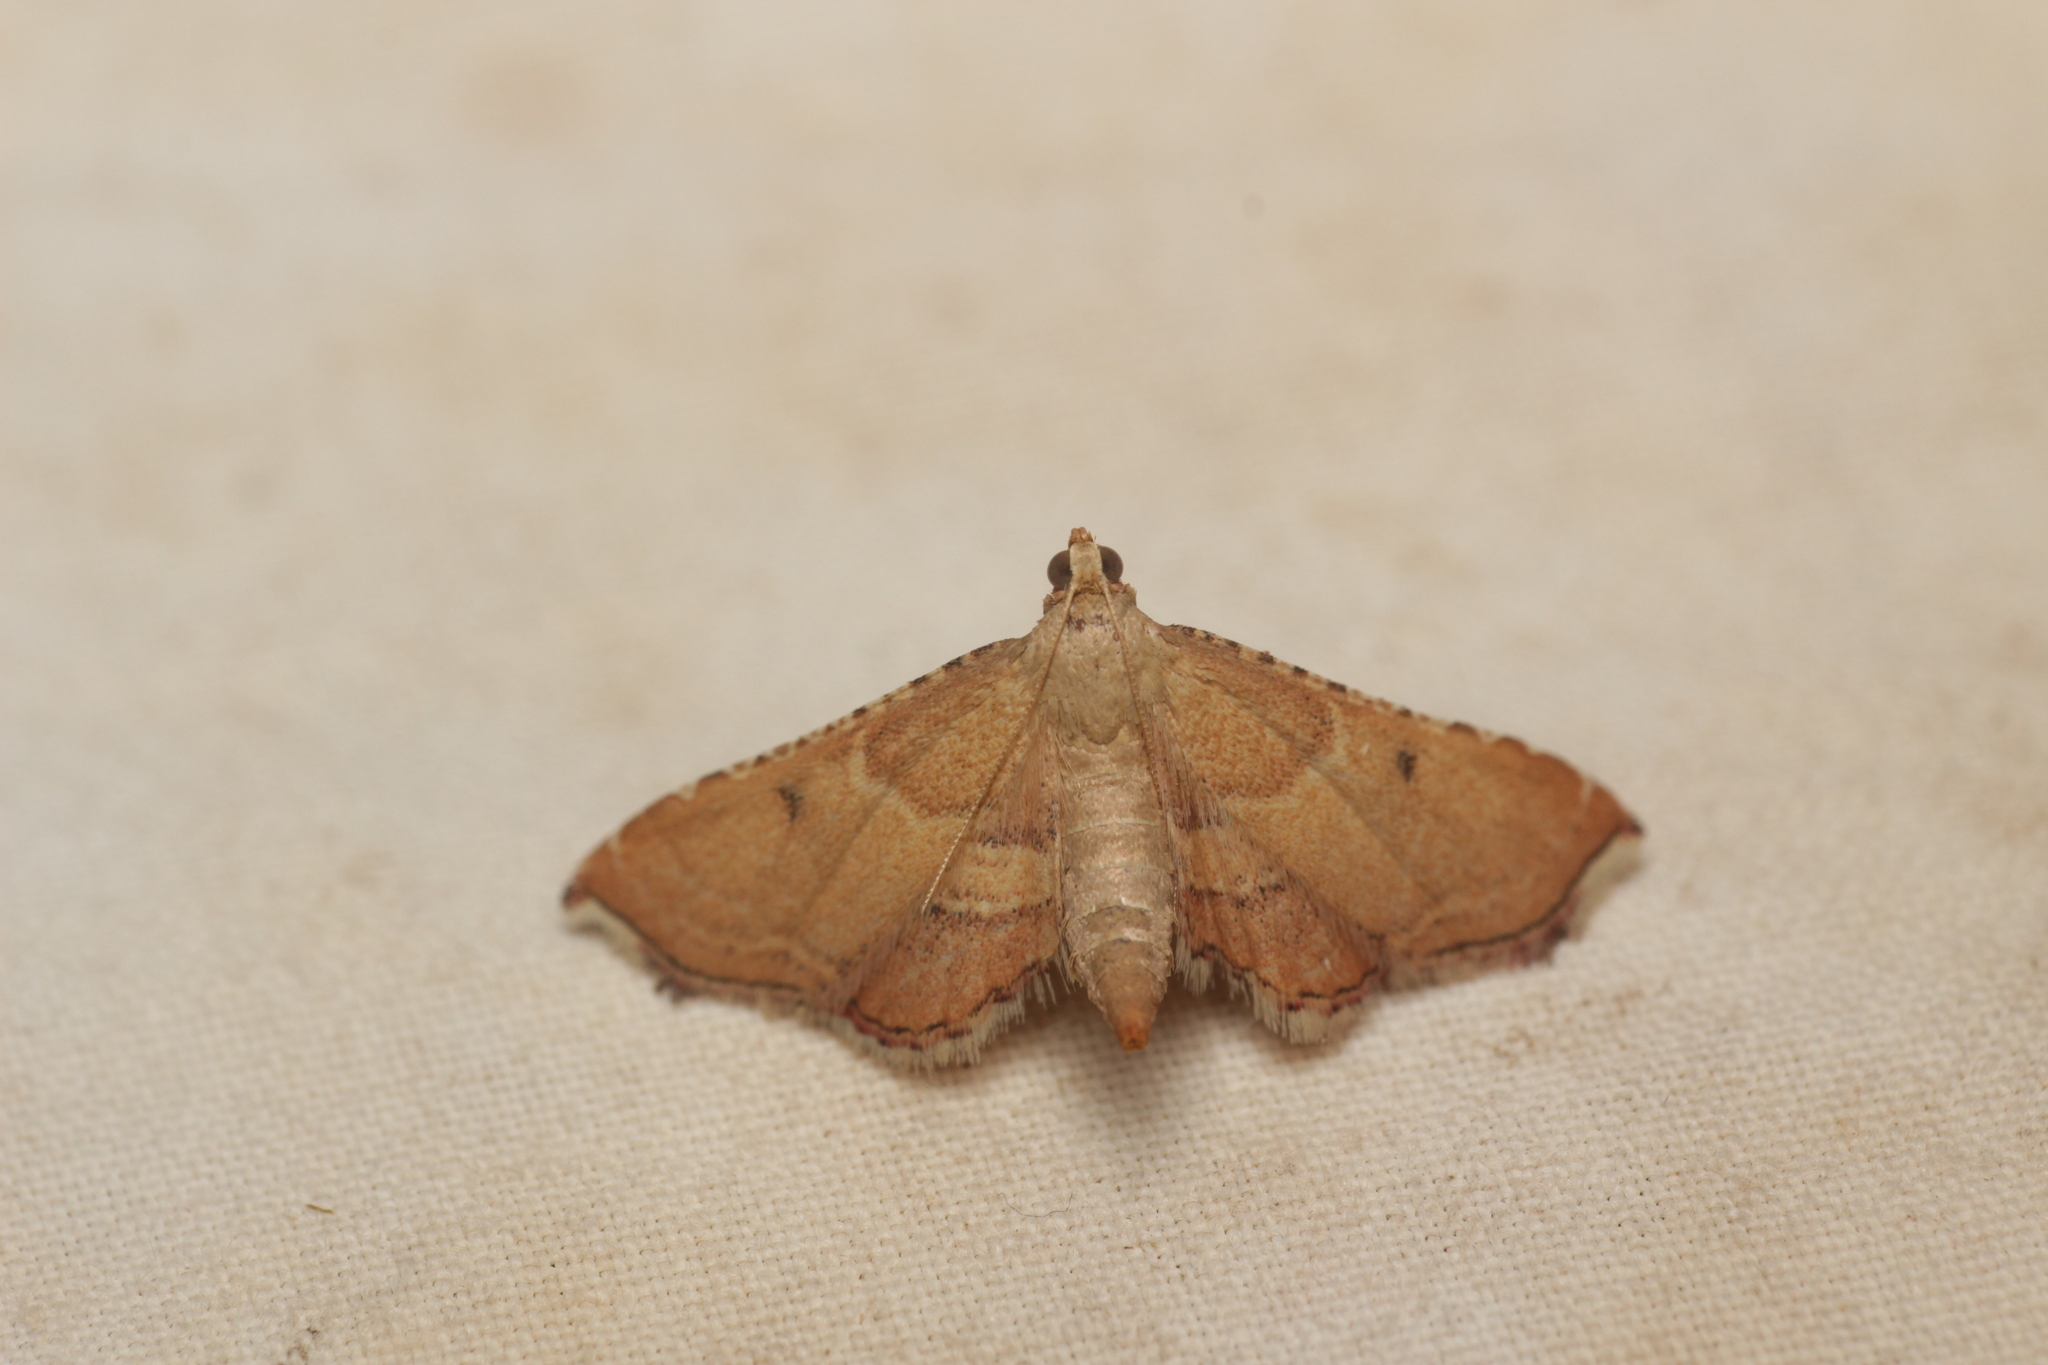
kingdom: Animalia
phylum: Arthropoda
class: Insecta
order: Lepidoptera
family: Pyralidae
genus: Endotricha
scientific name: Endotricha flammealis
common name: Rosy tabby
